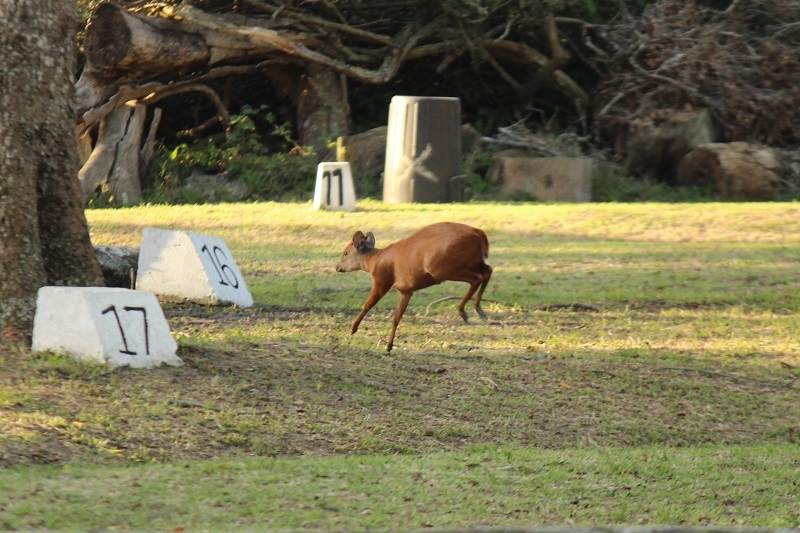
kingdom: Animalia
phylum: Chordata
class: Mammalia
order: Artiodactyla
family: Bovidae
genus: Cephalophus
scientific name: Cephalophus natalensis
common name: Red duiker
